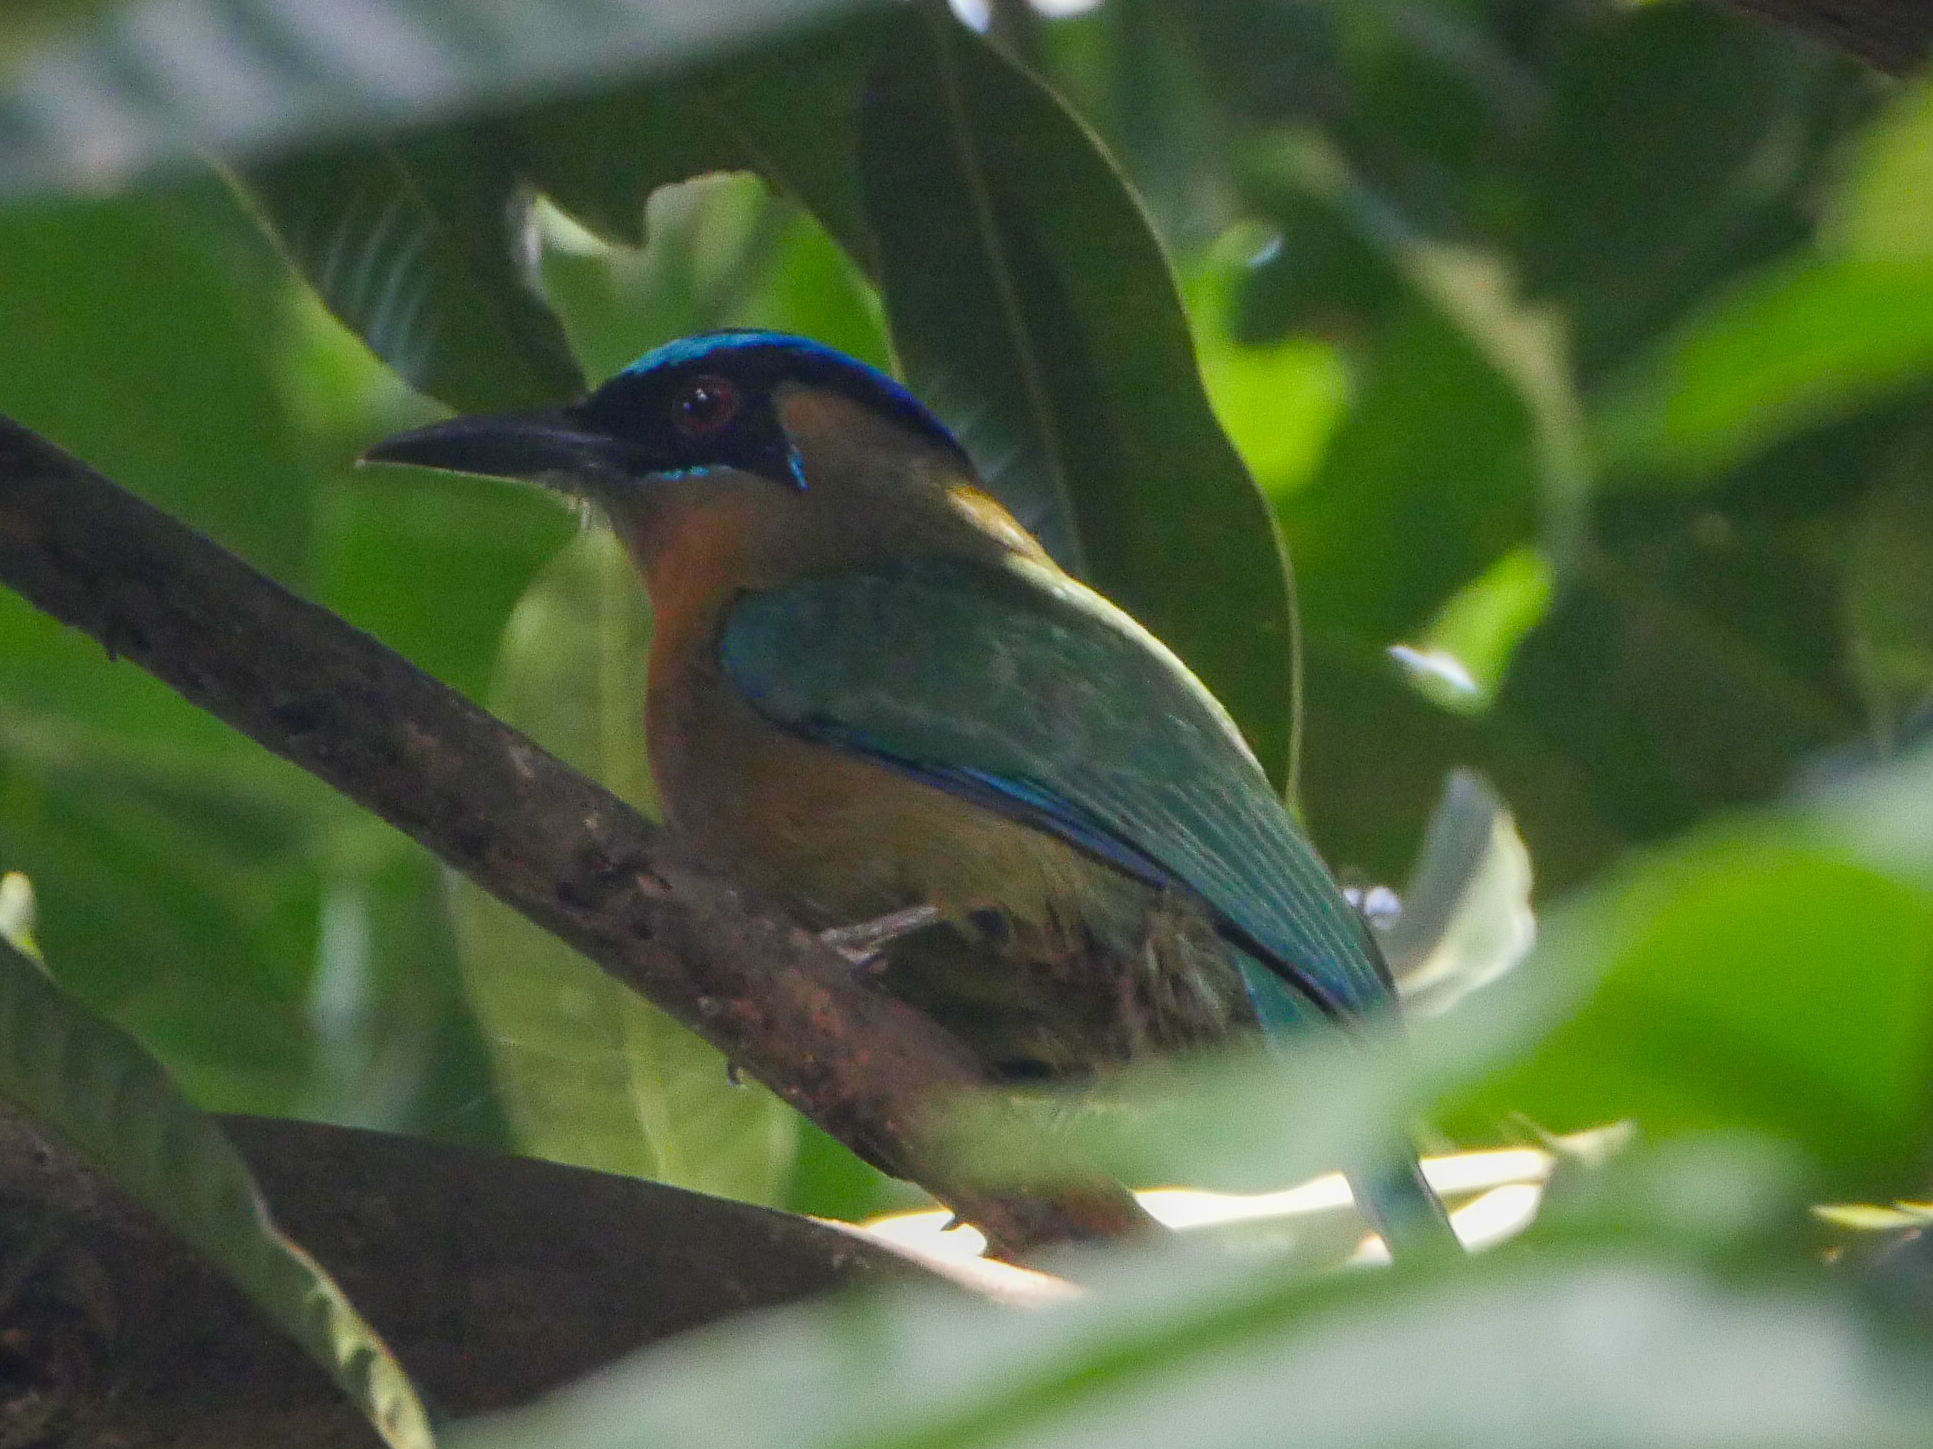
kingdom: Animalia
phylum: Chordata
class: Aves
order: Coraciiformes
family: Momotidae
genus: Momotus
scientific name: Momotus lessonii
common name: Lesson's motmot
